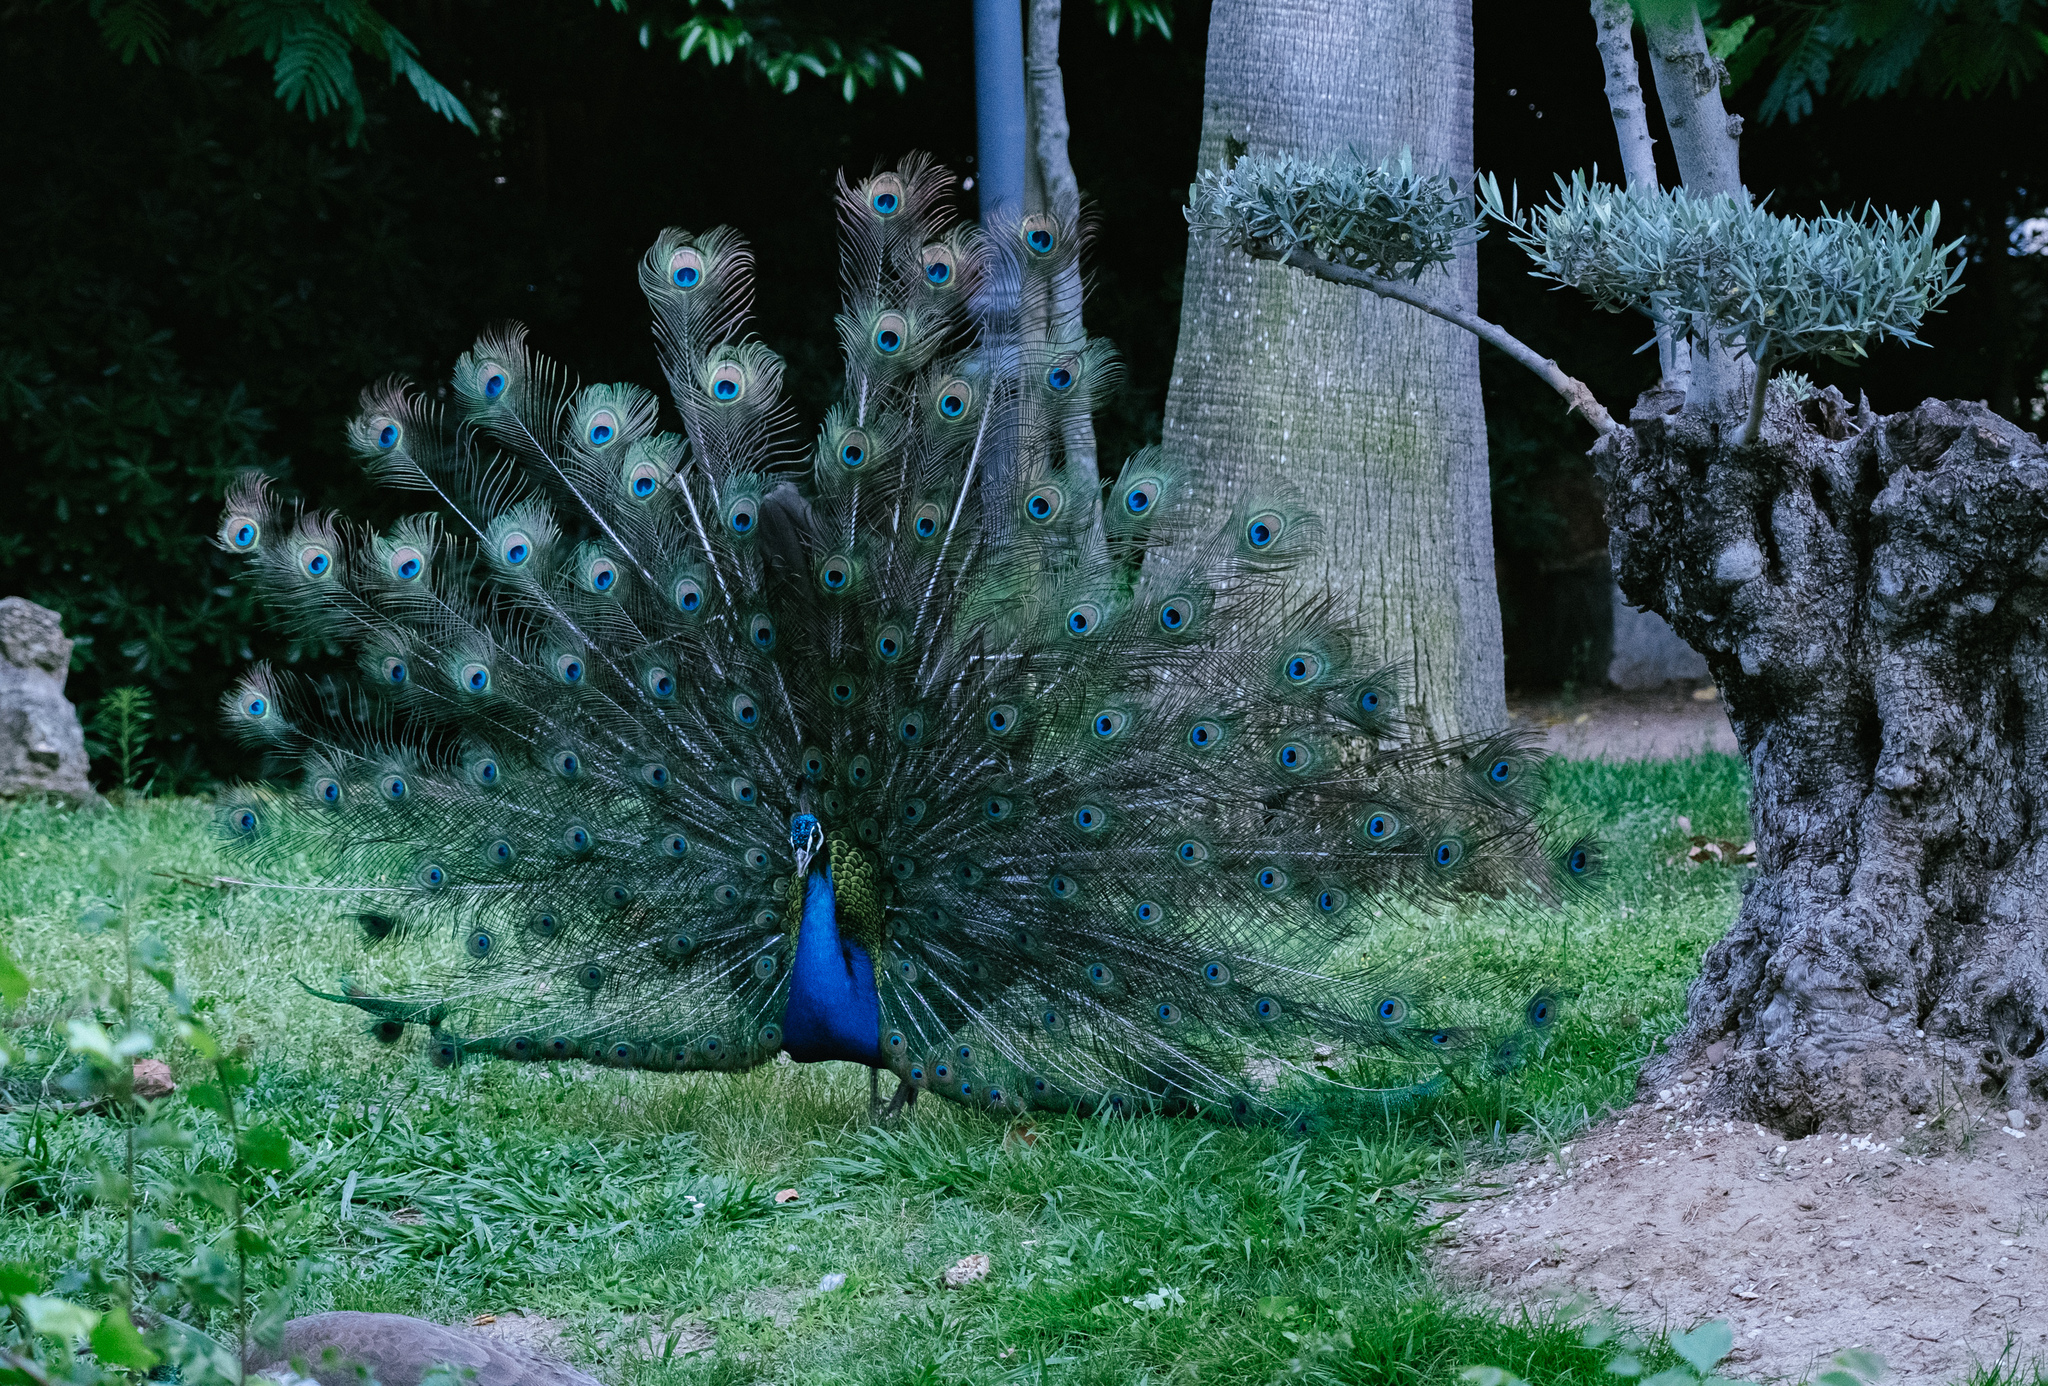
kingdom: Animalia
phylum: Chordata
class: Aves
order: Galliformes
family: Phasianidae
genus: Pavo
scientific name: Pavo cristatus
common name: Indian peafowl
